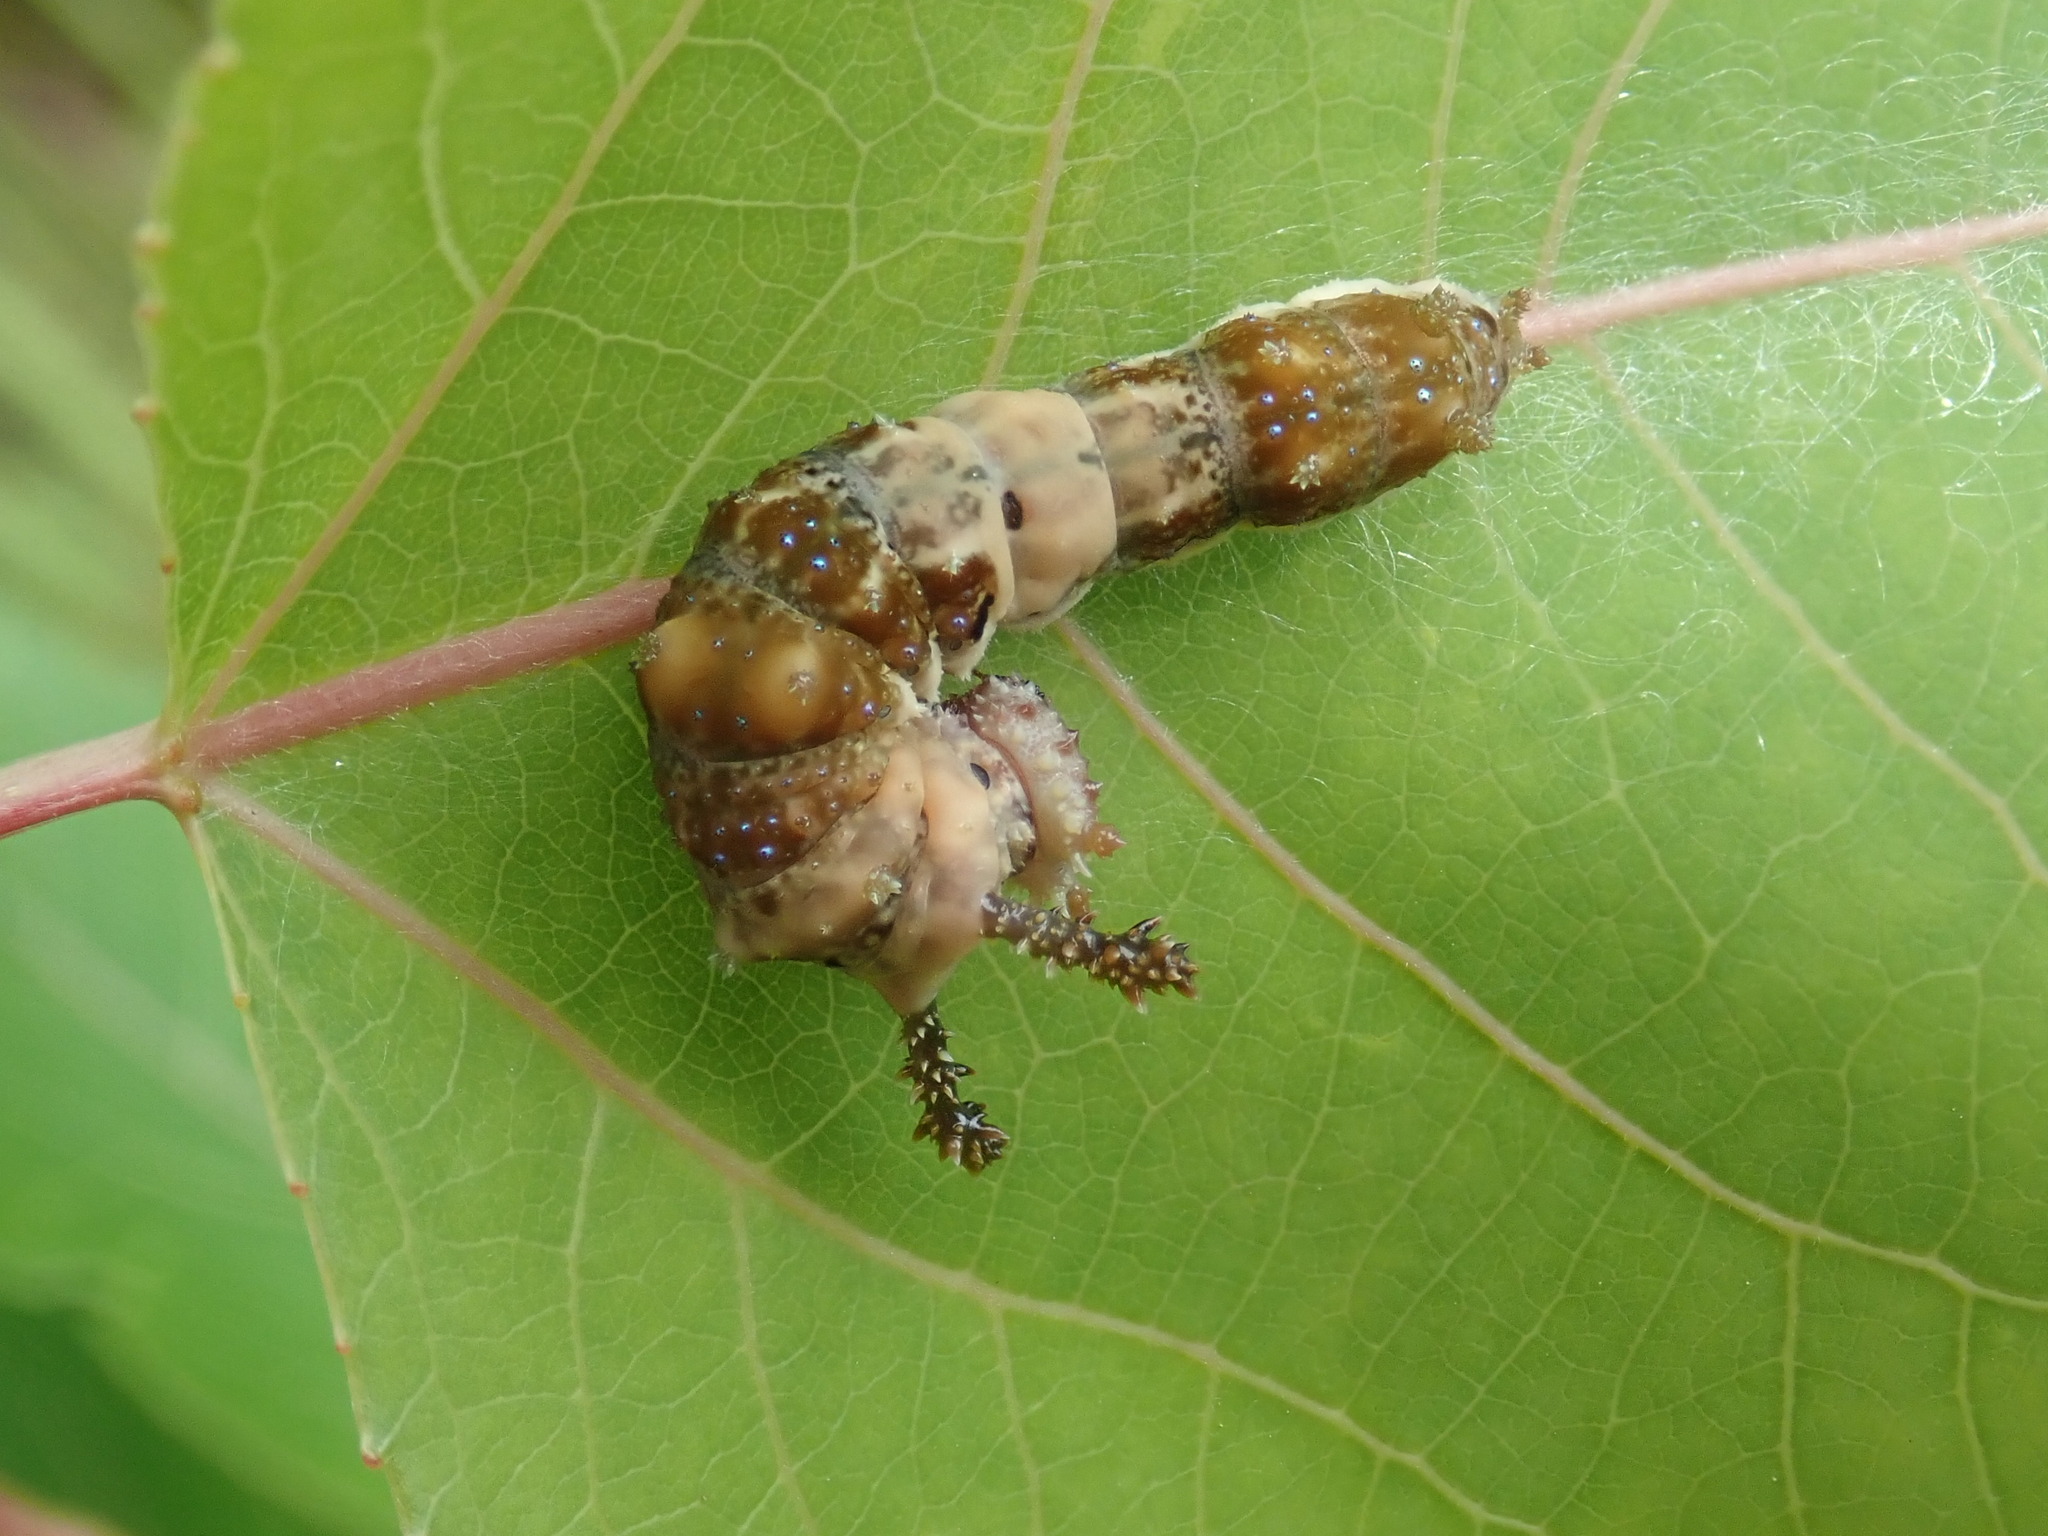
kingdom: Animalia
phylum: Arthropoda
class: Insecta
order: Lepidoptera
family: Nymphalidae
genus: Limenitis
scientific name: Limenitis archippus
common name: Viceroy
